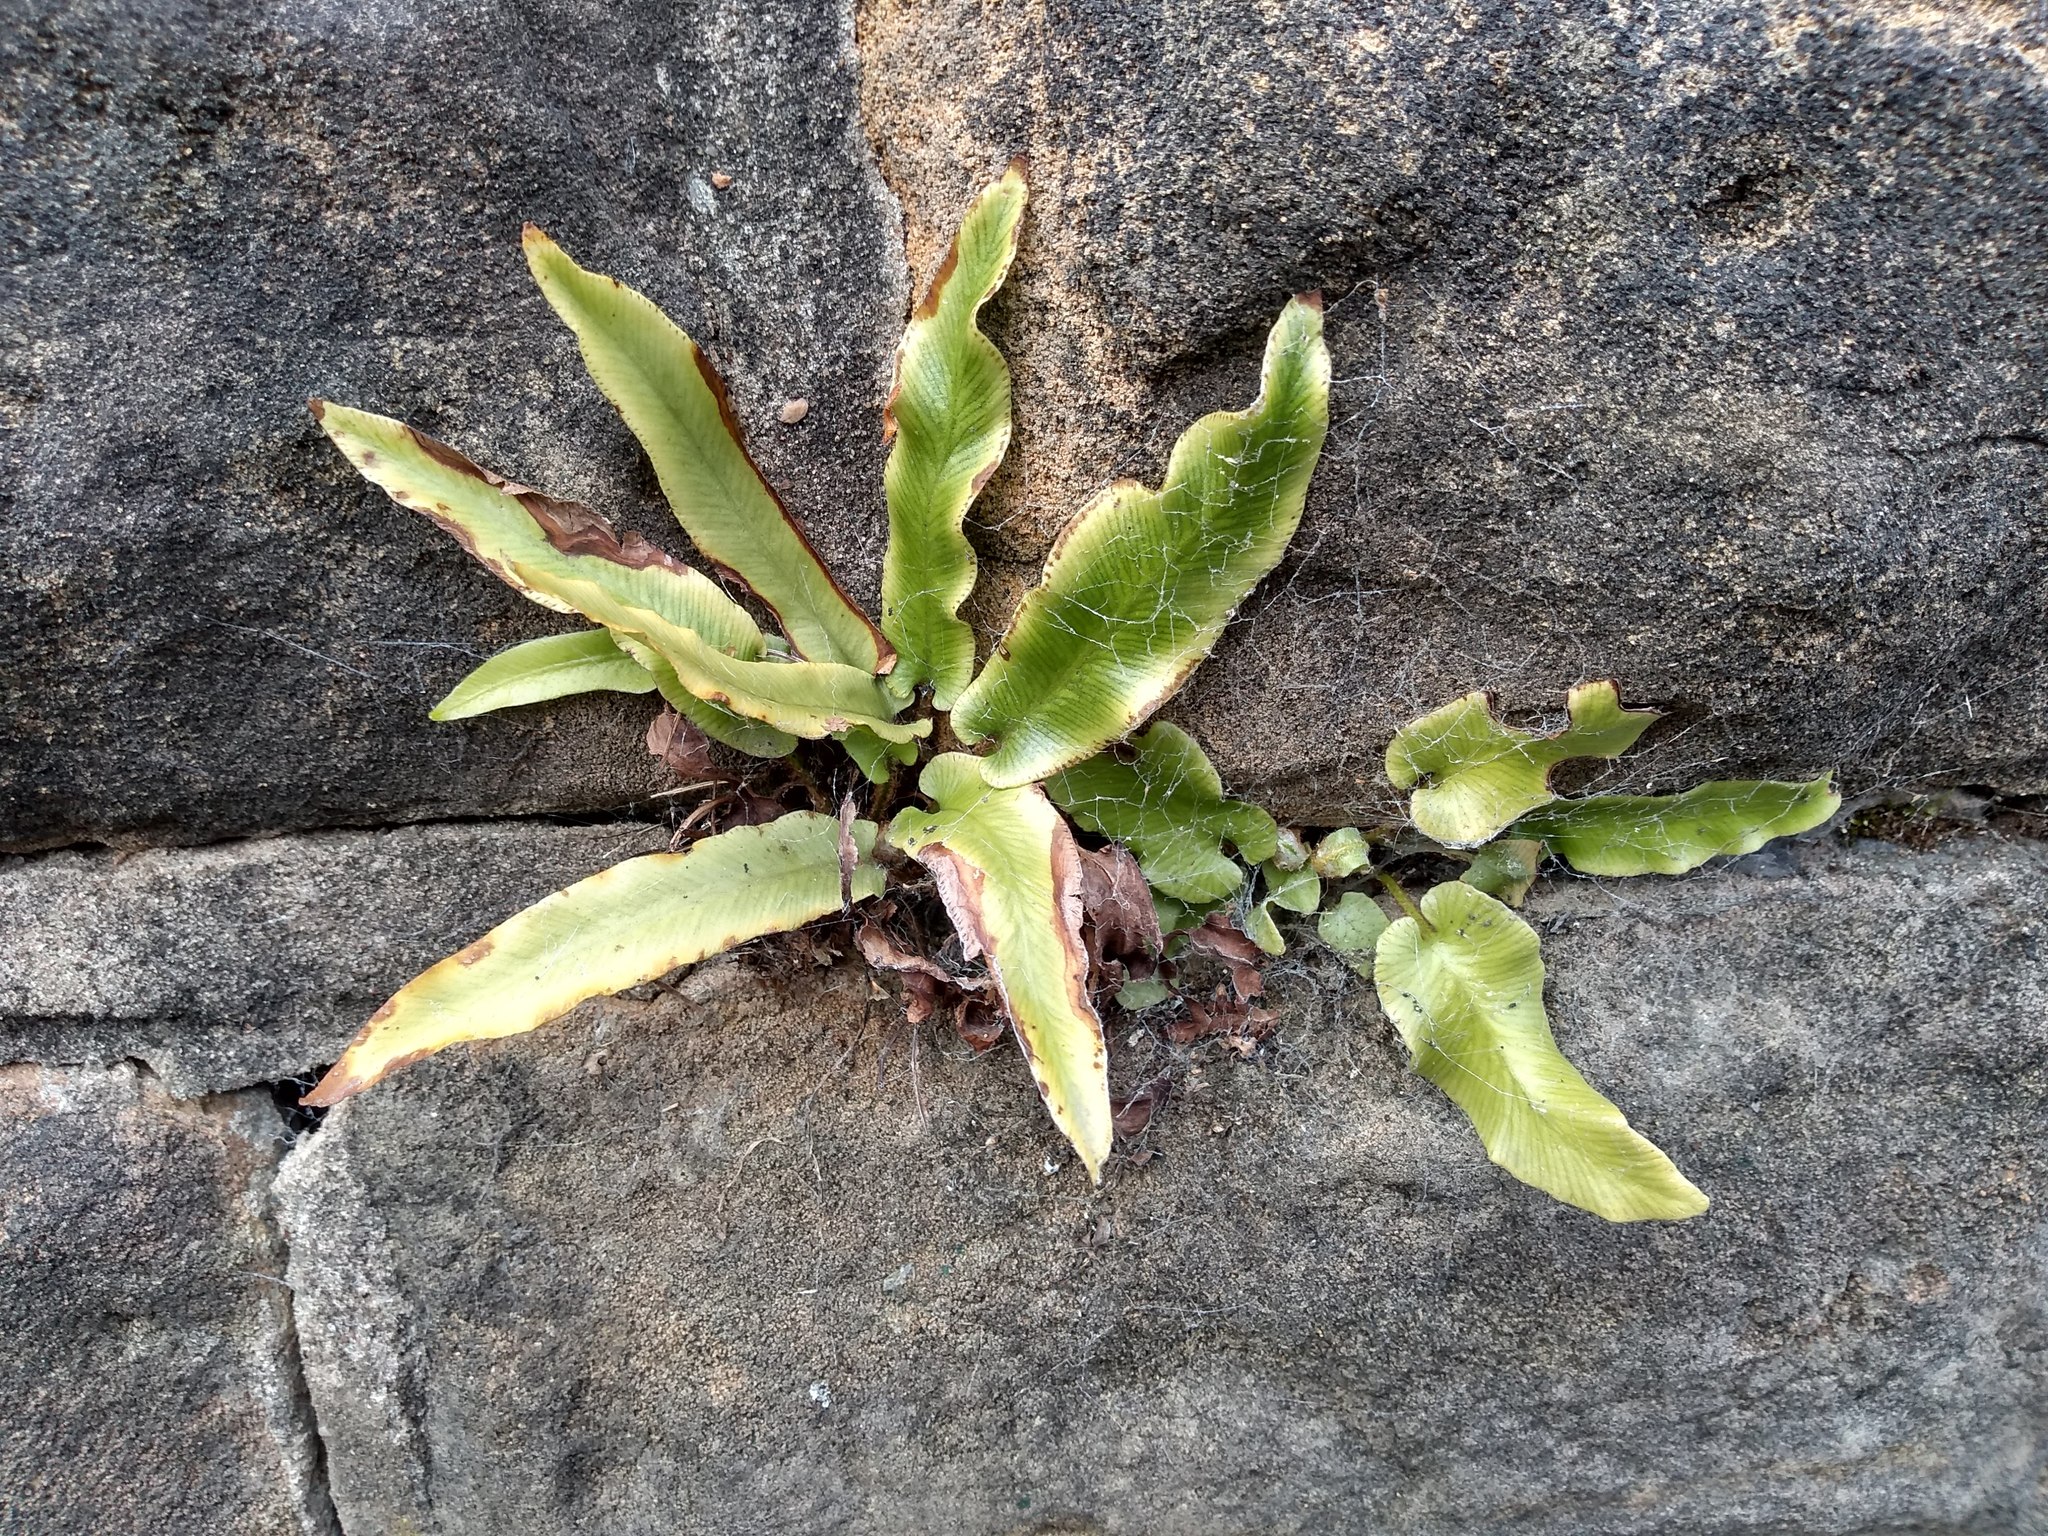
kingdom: Plantae
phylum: Tracheophyta
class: Polypodiopsida
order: Polypodiales
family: Aspleniaceae
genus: Asplenium
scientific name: Asplenium scolopendrium
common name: Hart's-tongue fern
